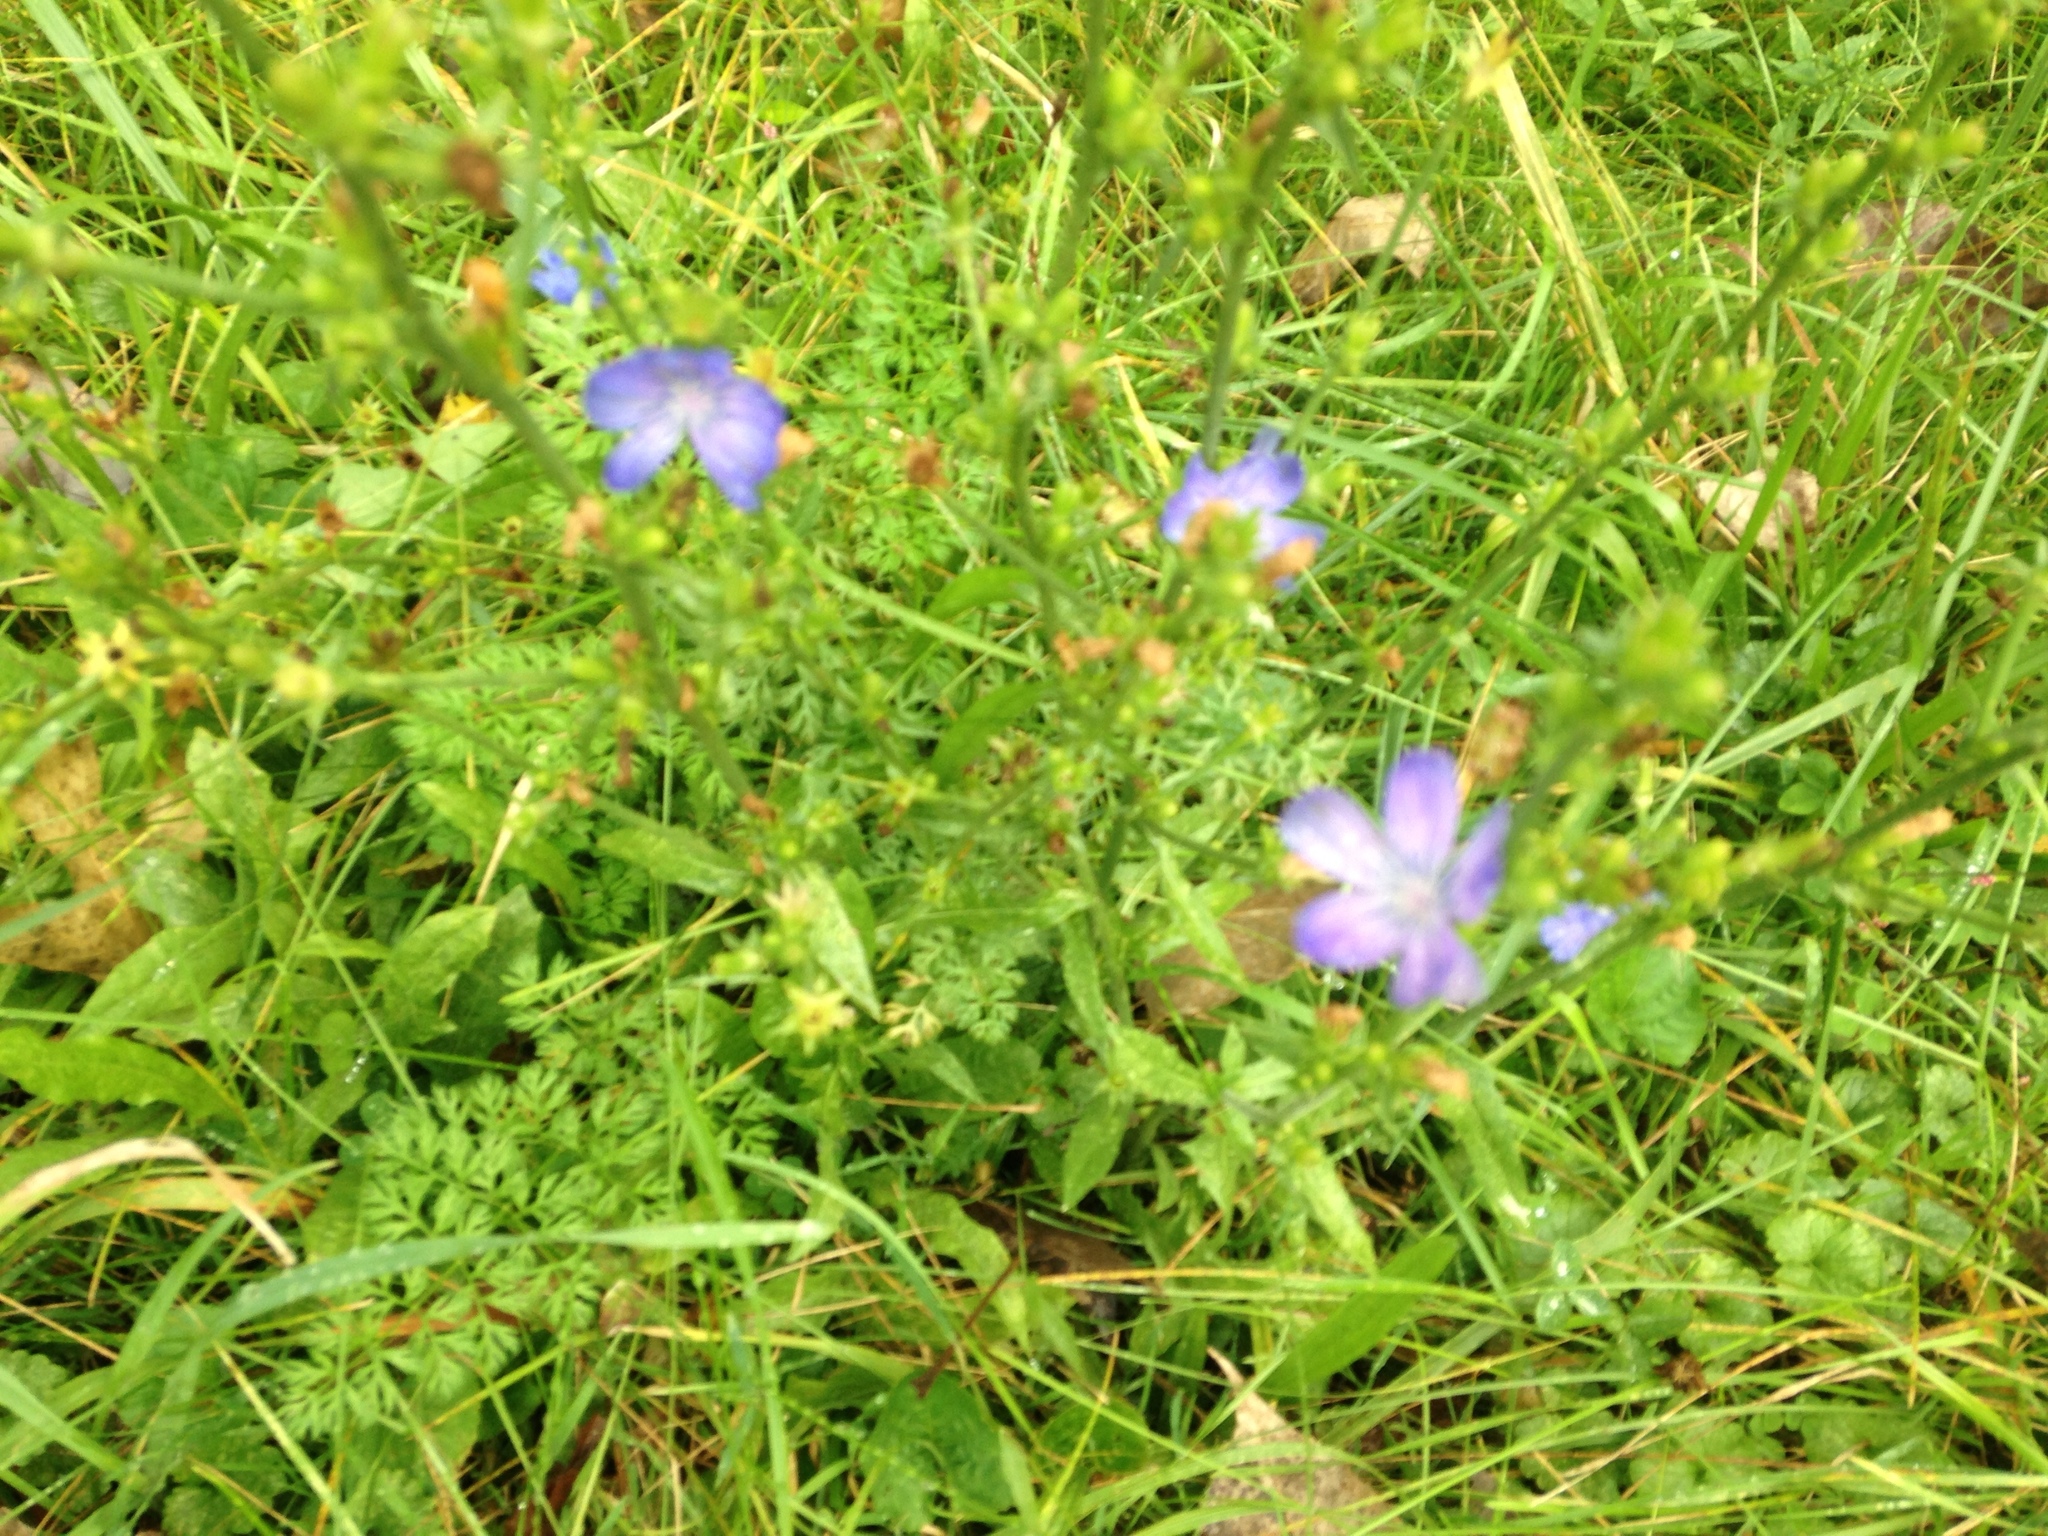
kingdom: Plantae
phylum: Tracheophyta
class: Magnoliopsida
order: Asterales
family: Asteraceae
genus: Cichorium
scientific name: Cichorium intybus
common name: Chicory
